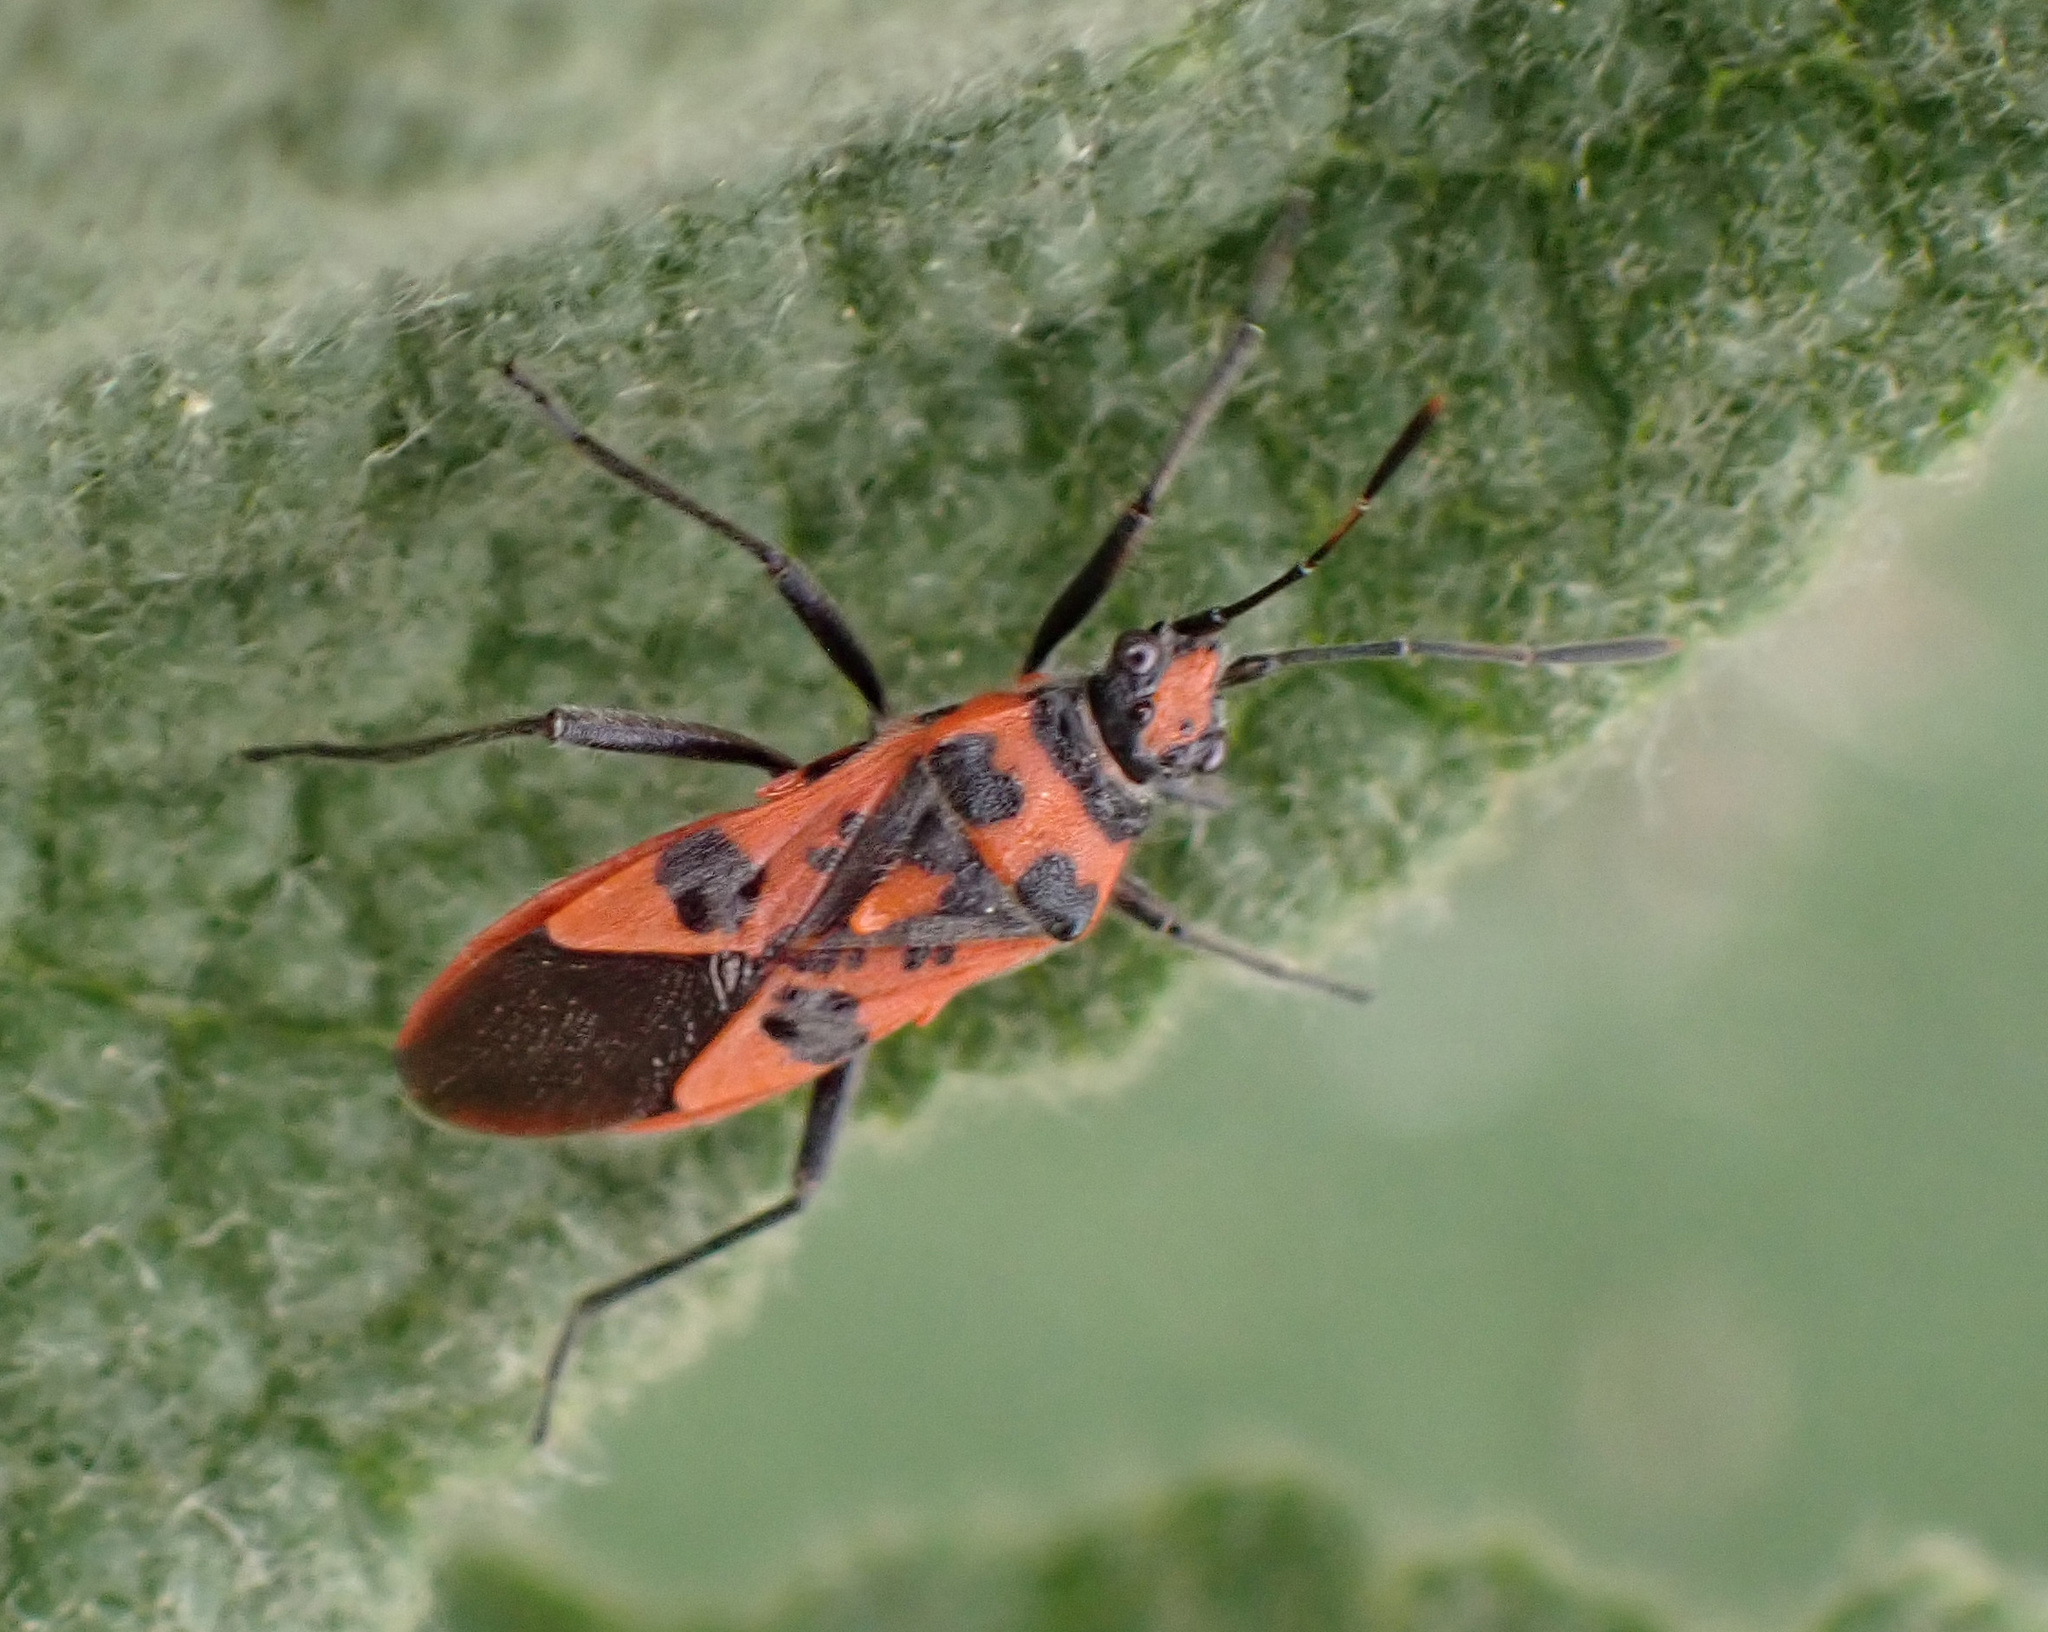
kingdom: Animalia
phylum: Arthropoda
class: Insecta
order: Hemiptera
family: Rhopalidae
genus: Corizus
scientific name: Corizus hyoscyami
